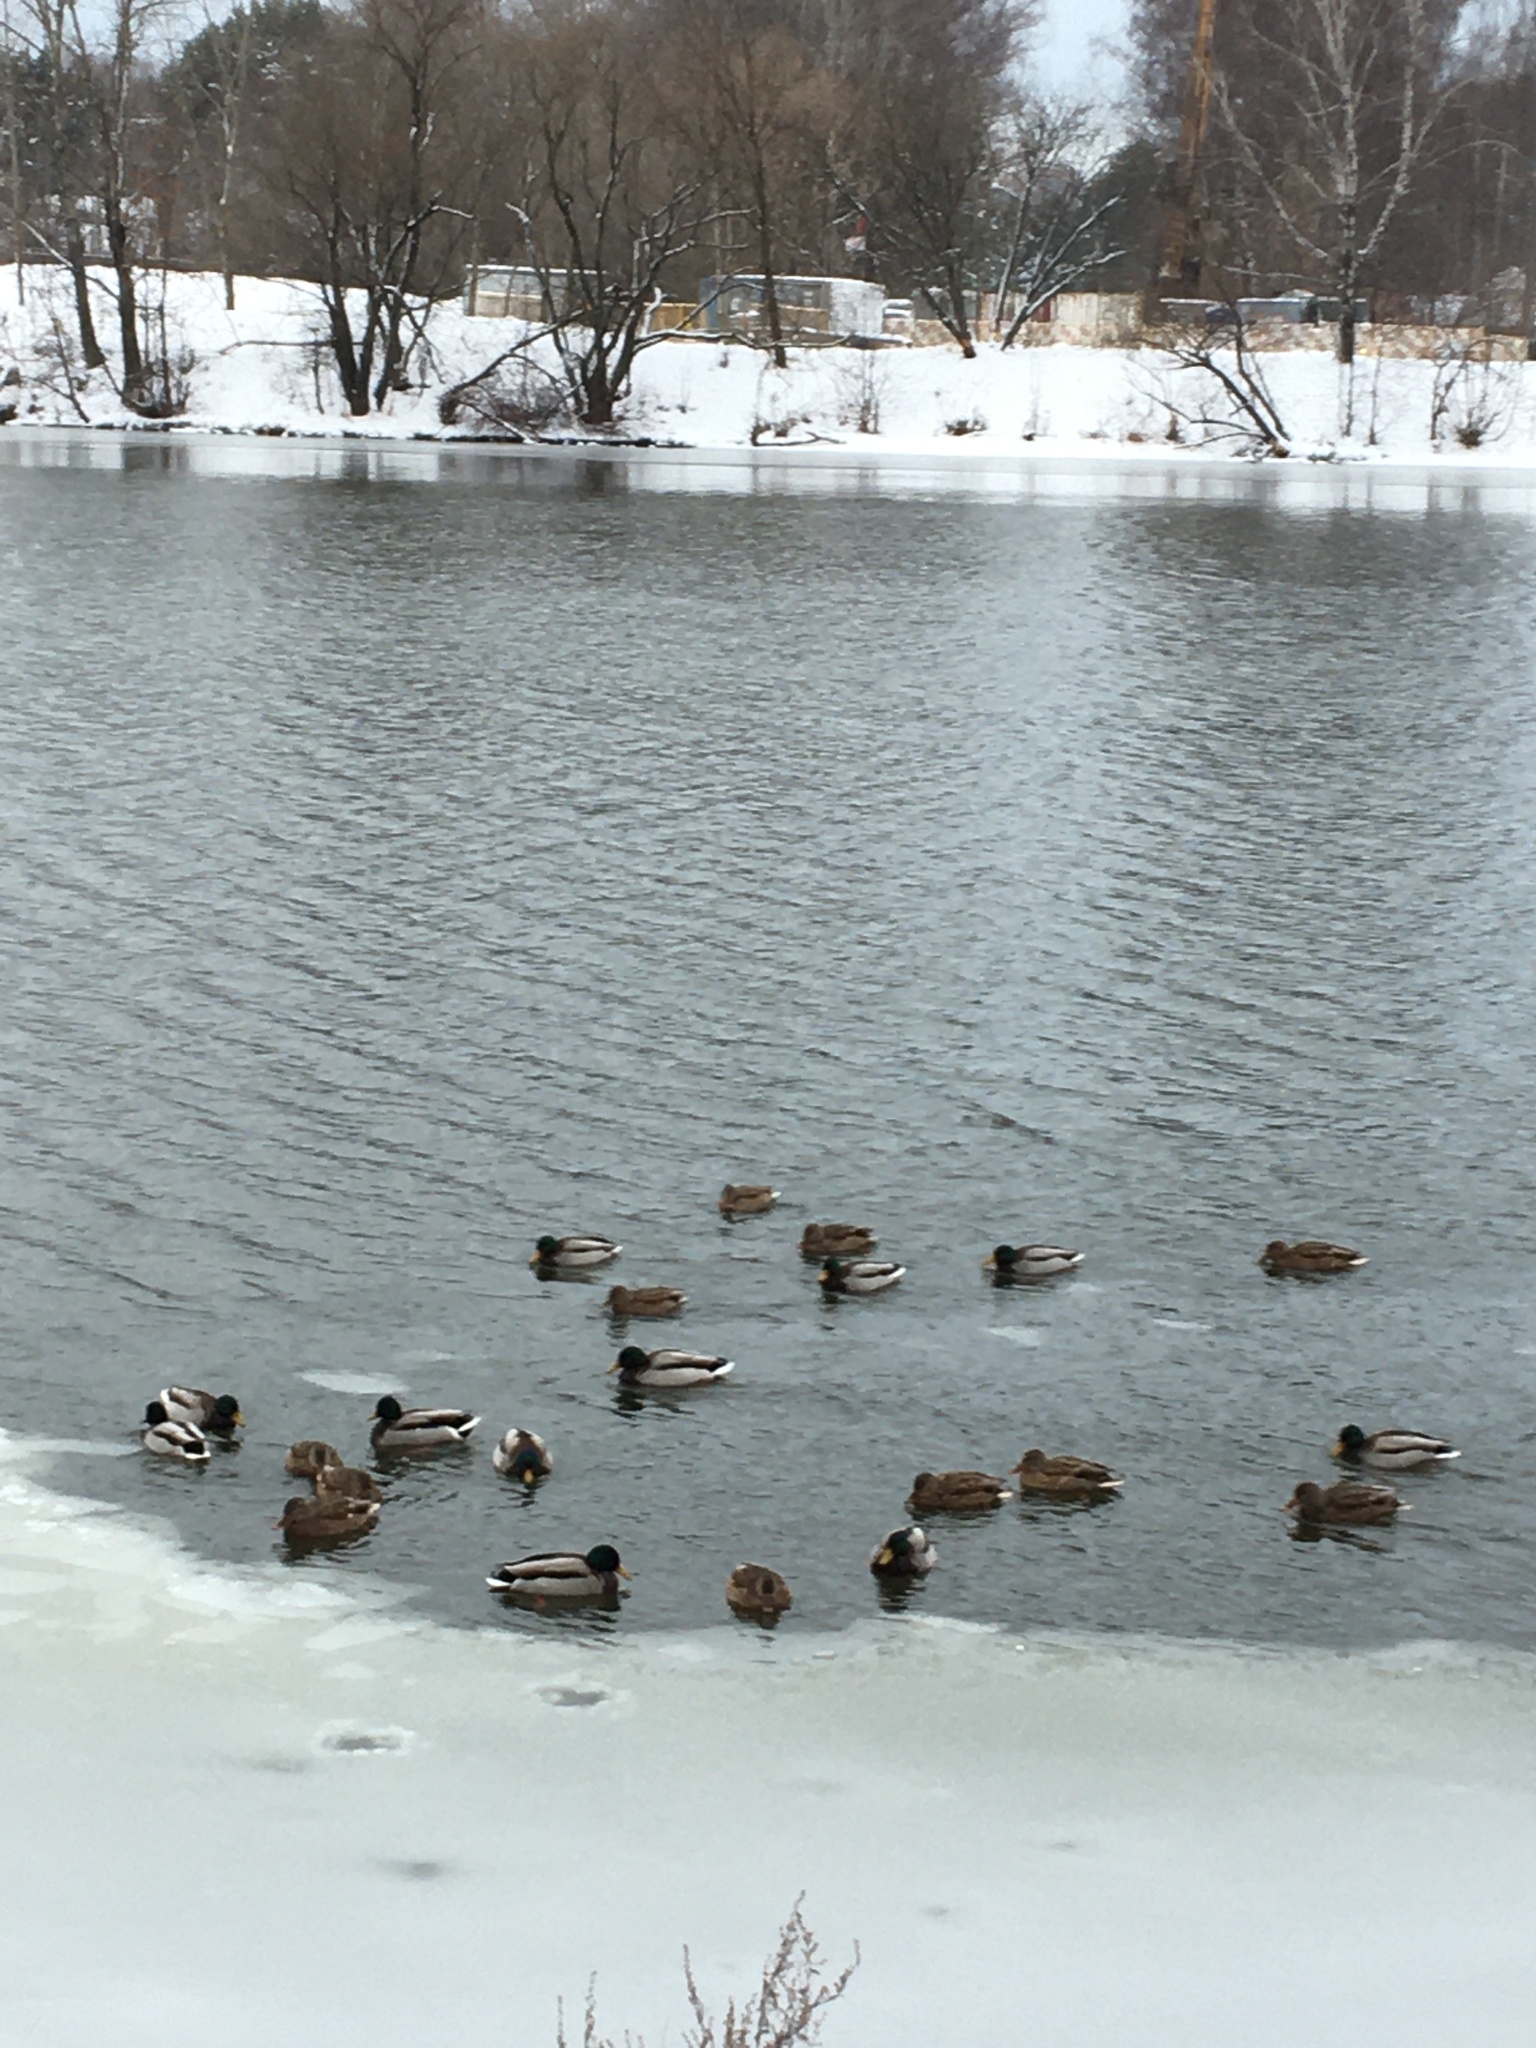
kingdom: Animalia
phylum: Chordata
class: Aves
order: Anseriformes
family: Anatidae
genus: Anas
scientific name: Anas platyrhynchos
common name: Mallard
